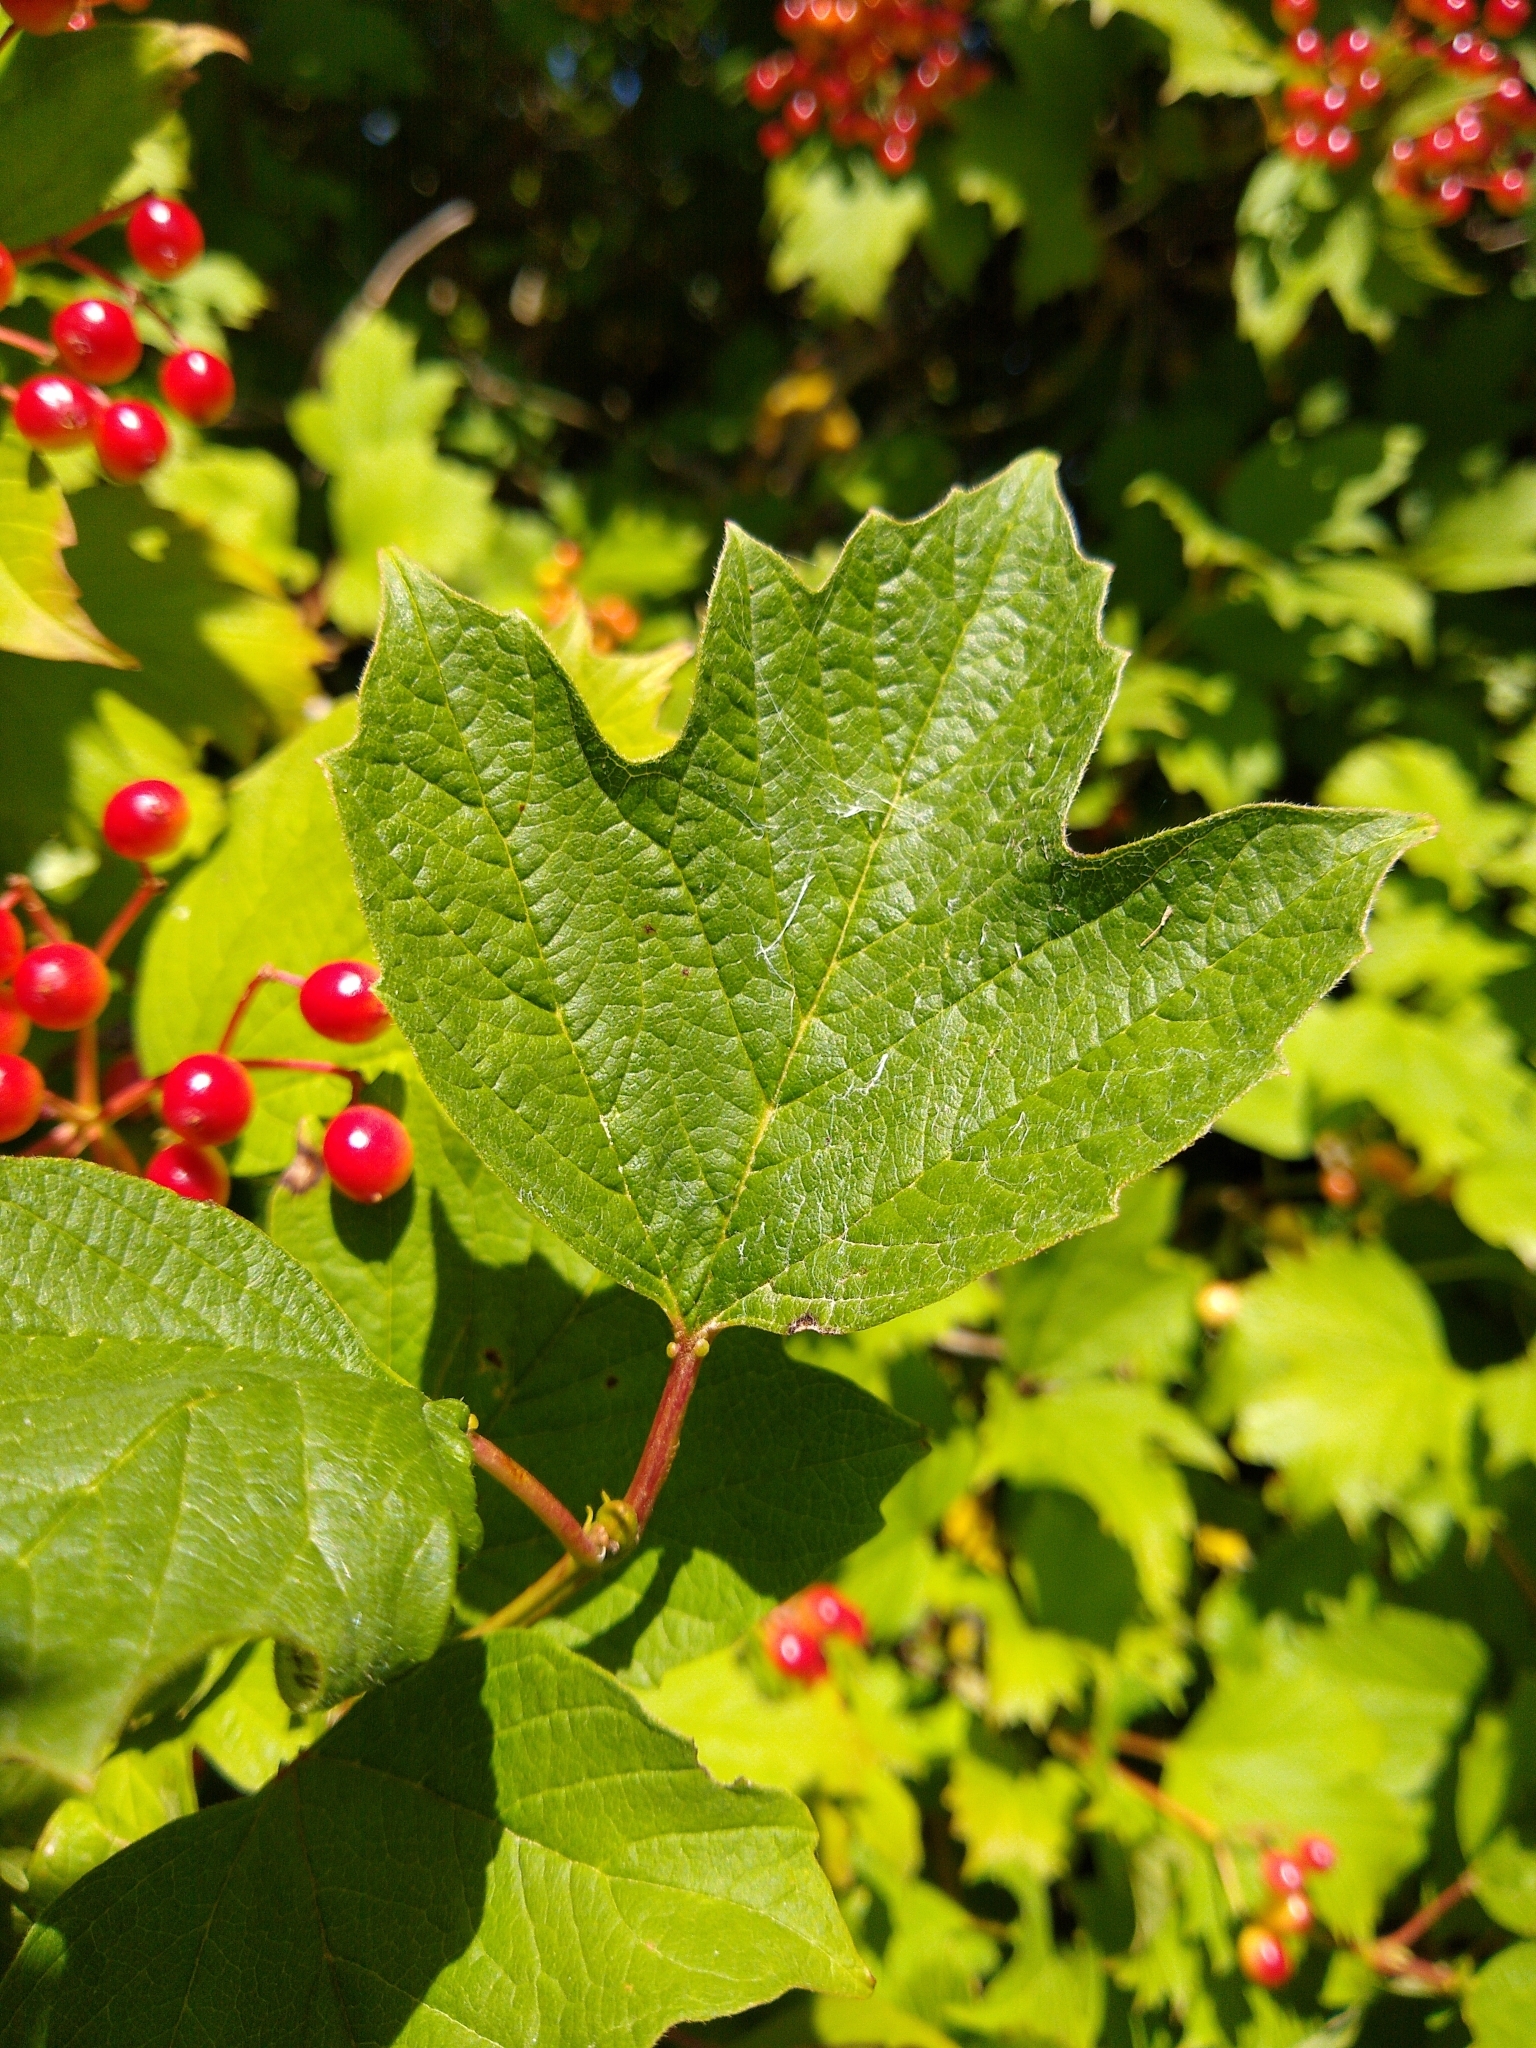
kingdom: Plantae
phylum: Tracheophyta
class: Magnoliopsida
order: Dipsacales
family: Viburnaceae
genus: Viburnum
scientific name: Viburnum opulus
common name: Guelder-rose
